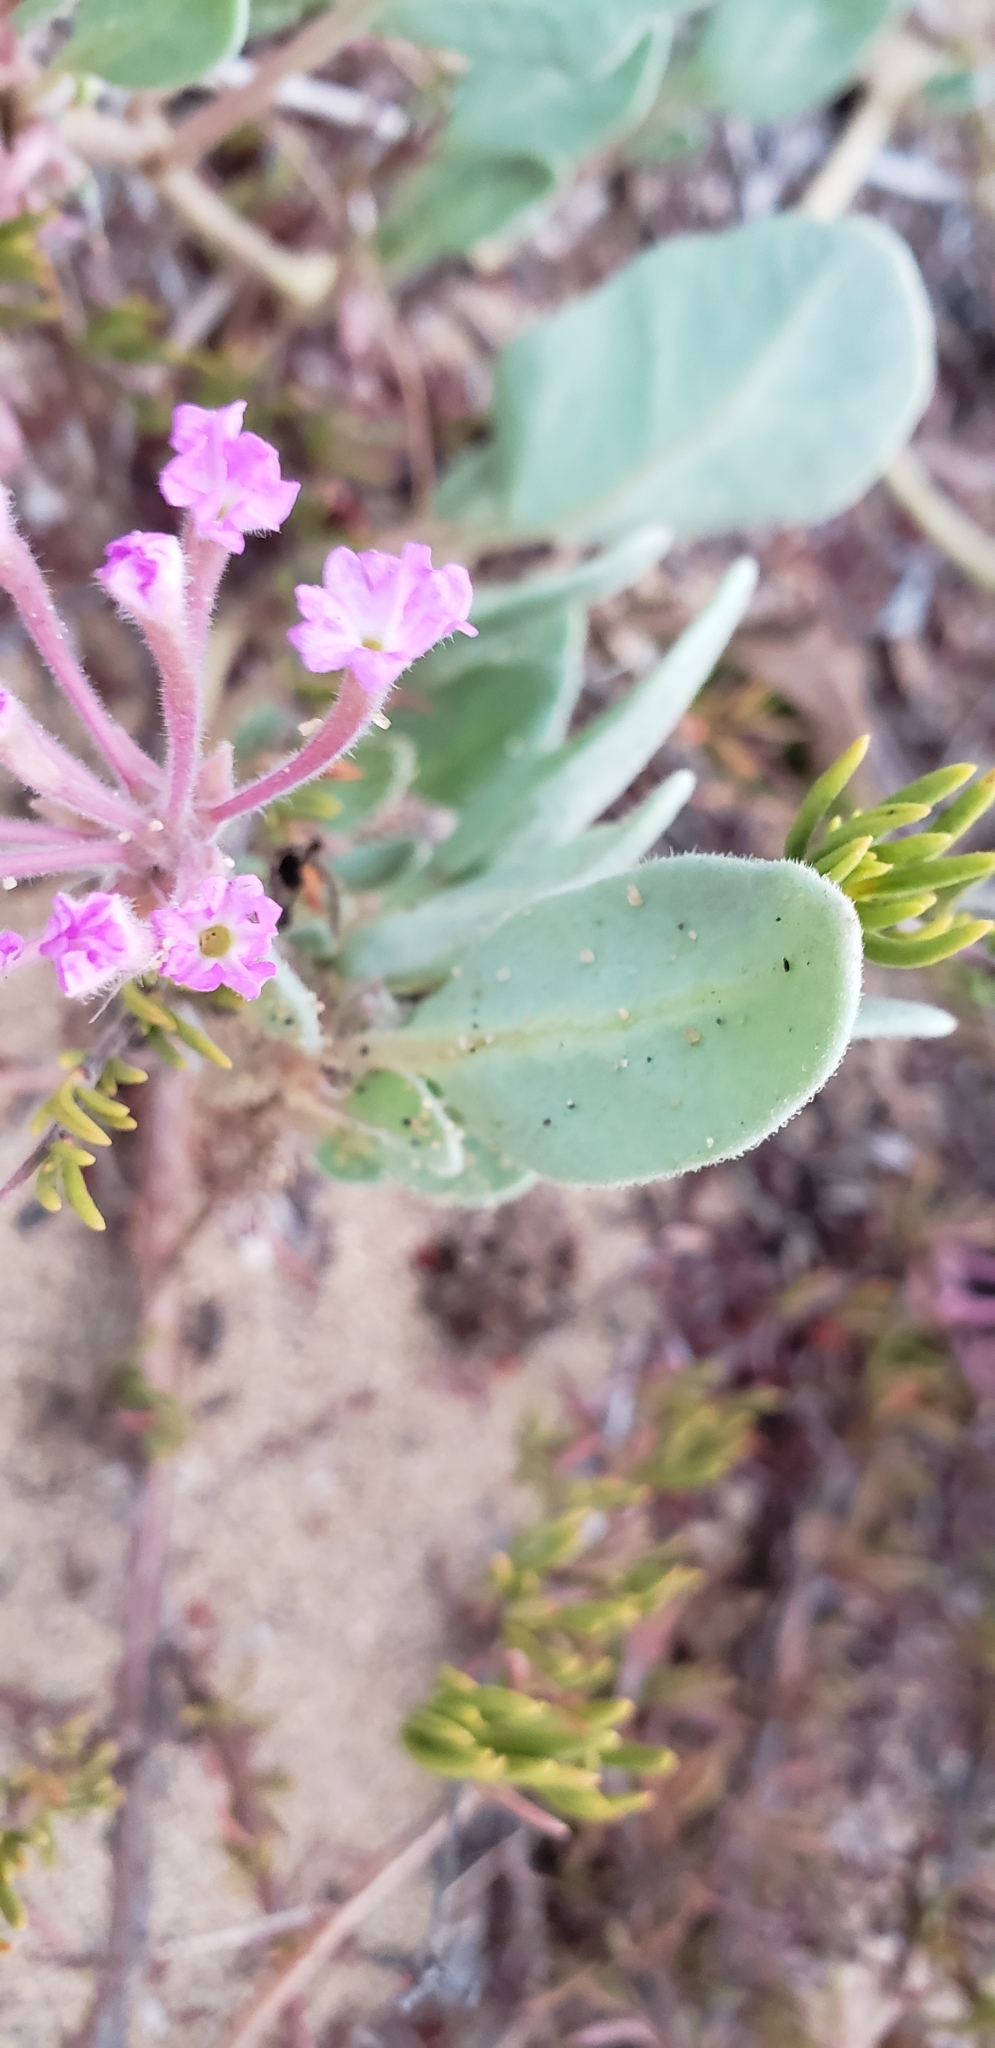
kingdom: Plantae
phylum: Tracheophyta
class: Magnoliopsida
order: Caryophyllales
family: Nyctaginaceae
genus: Abronia
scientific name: Abronia umbellata
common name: Sand-verbena
